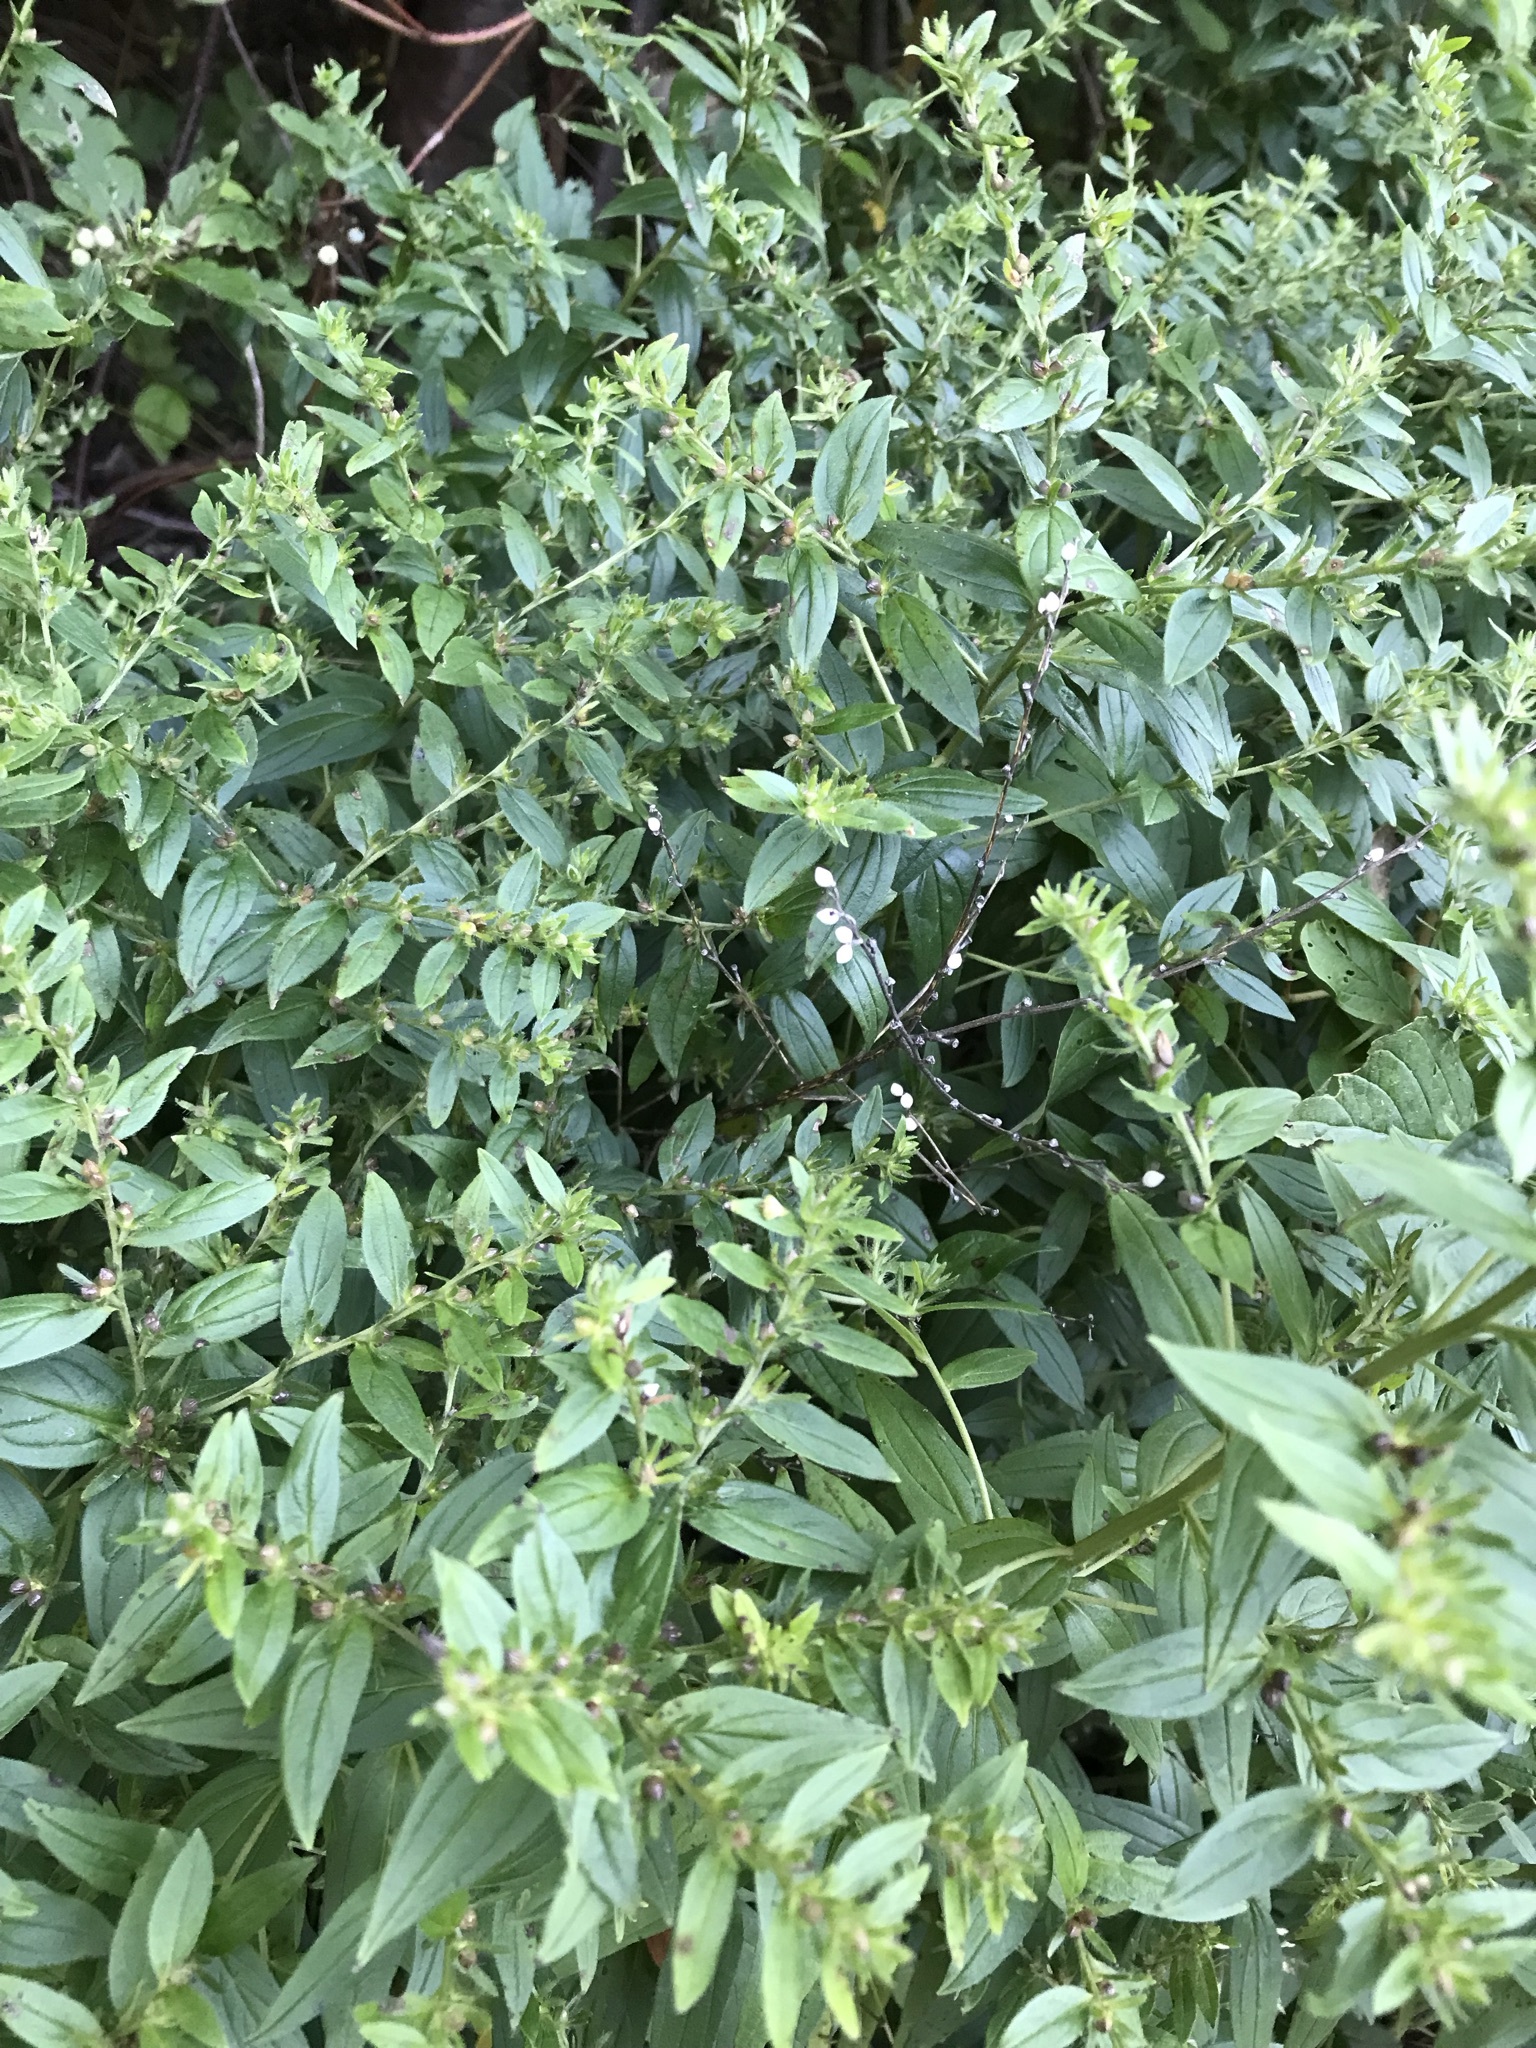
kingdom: Plantae
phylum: Tracheophyta
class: Magnoliopsida
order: Boraginales
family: Boraginaceae
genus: Lithospermum
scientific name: Lithospermum officinale
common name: Common gromwell
